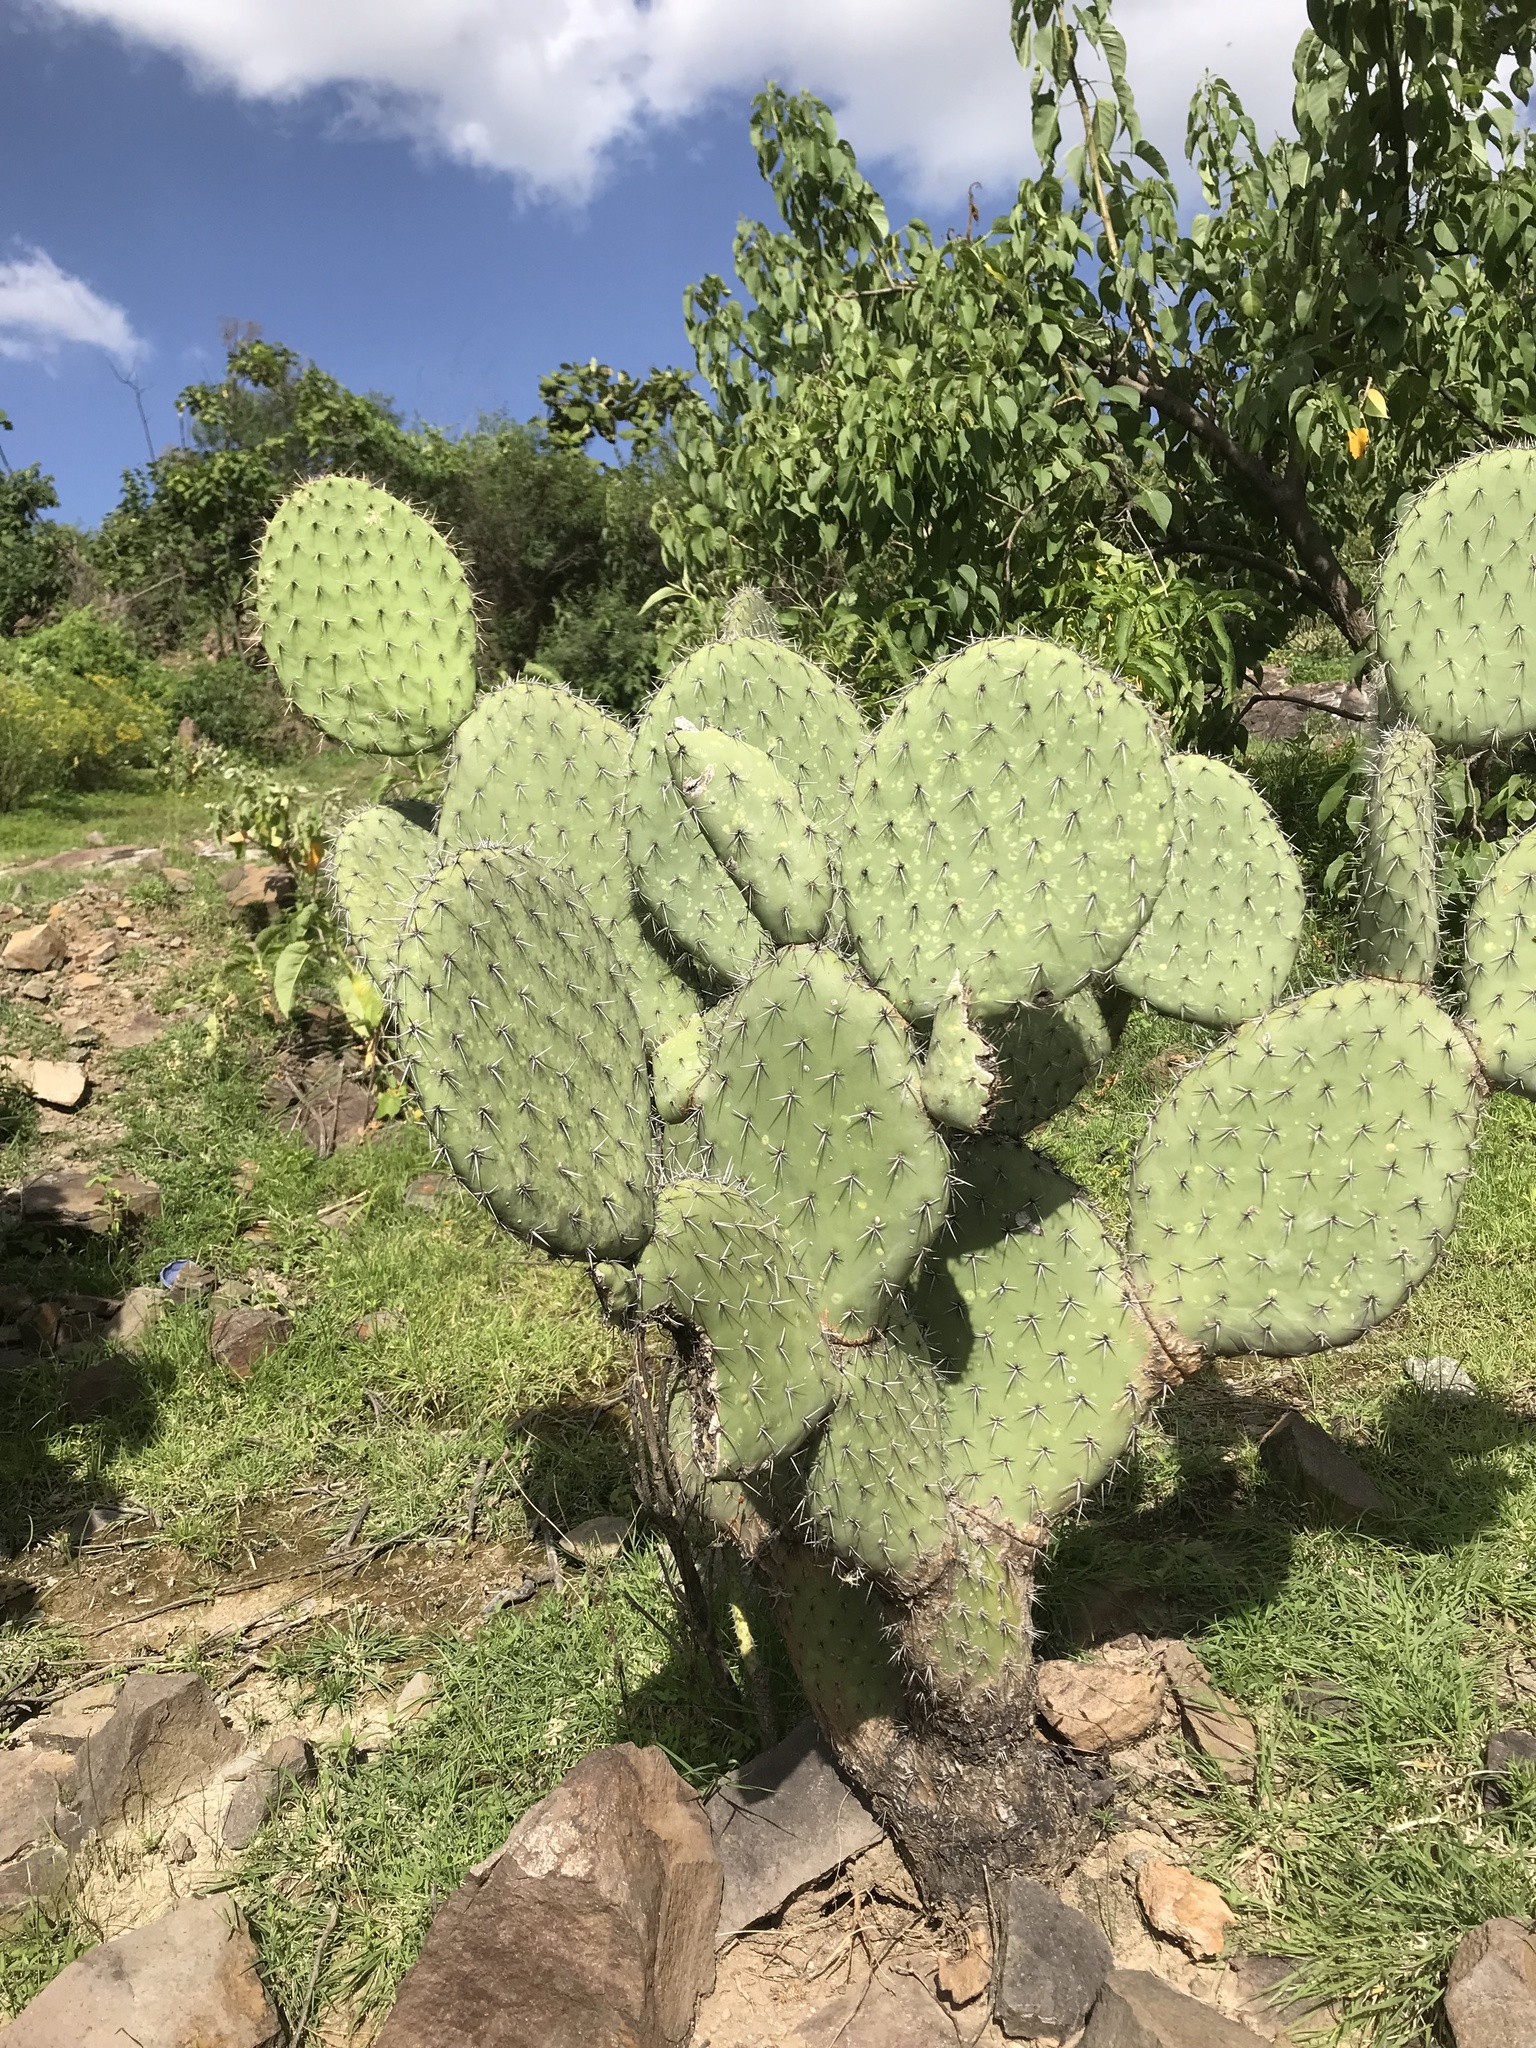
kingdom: Plantae
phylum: Tracheophyta
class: Magnoliopsida
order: Caryophyllales
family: Cactaceae
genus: Opuntia
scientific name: Opuntia streptacantha
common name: Gracemere-pear
